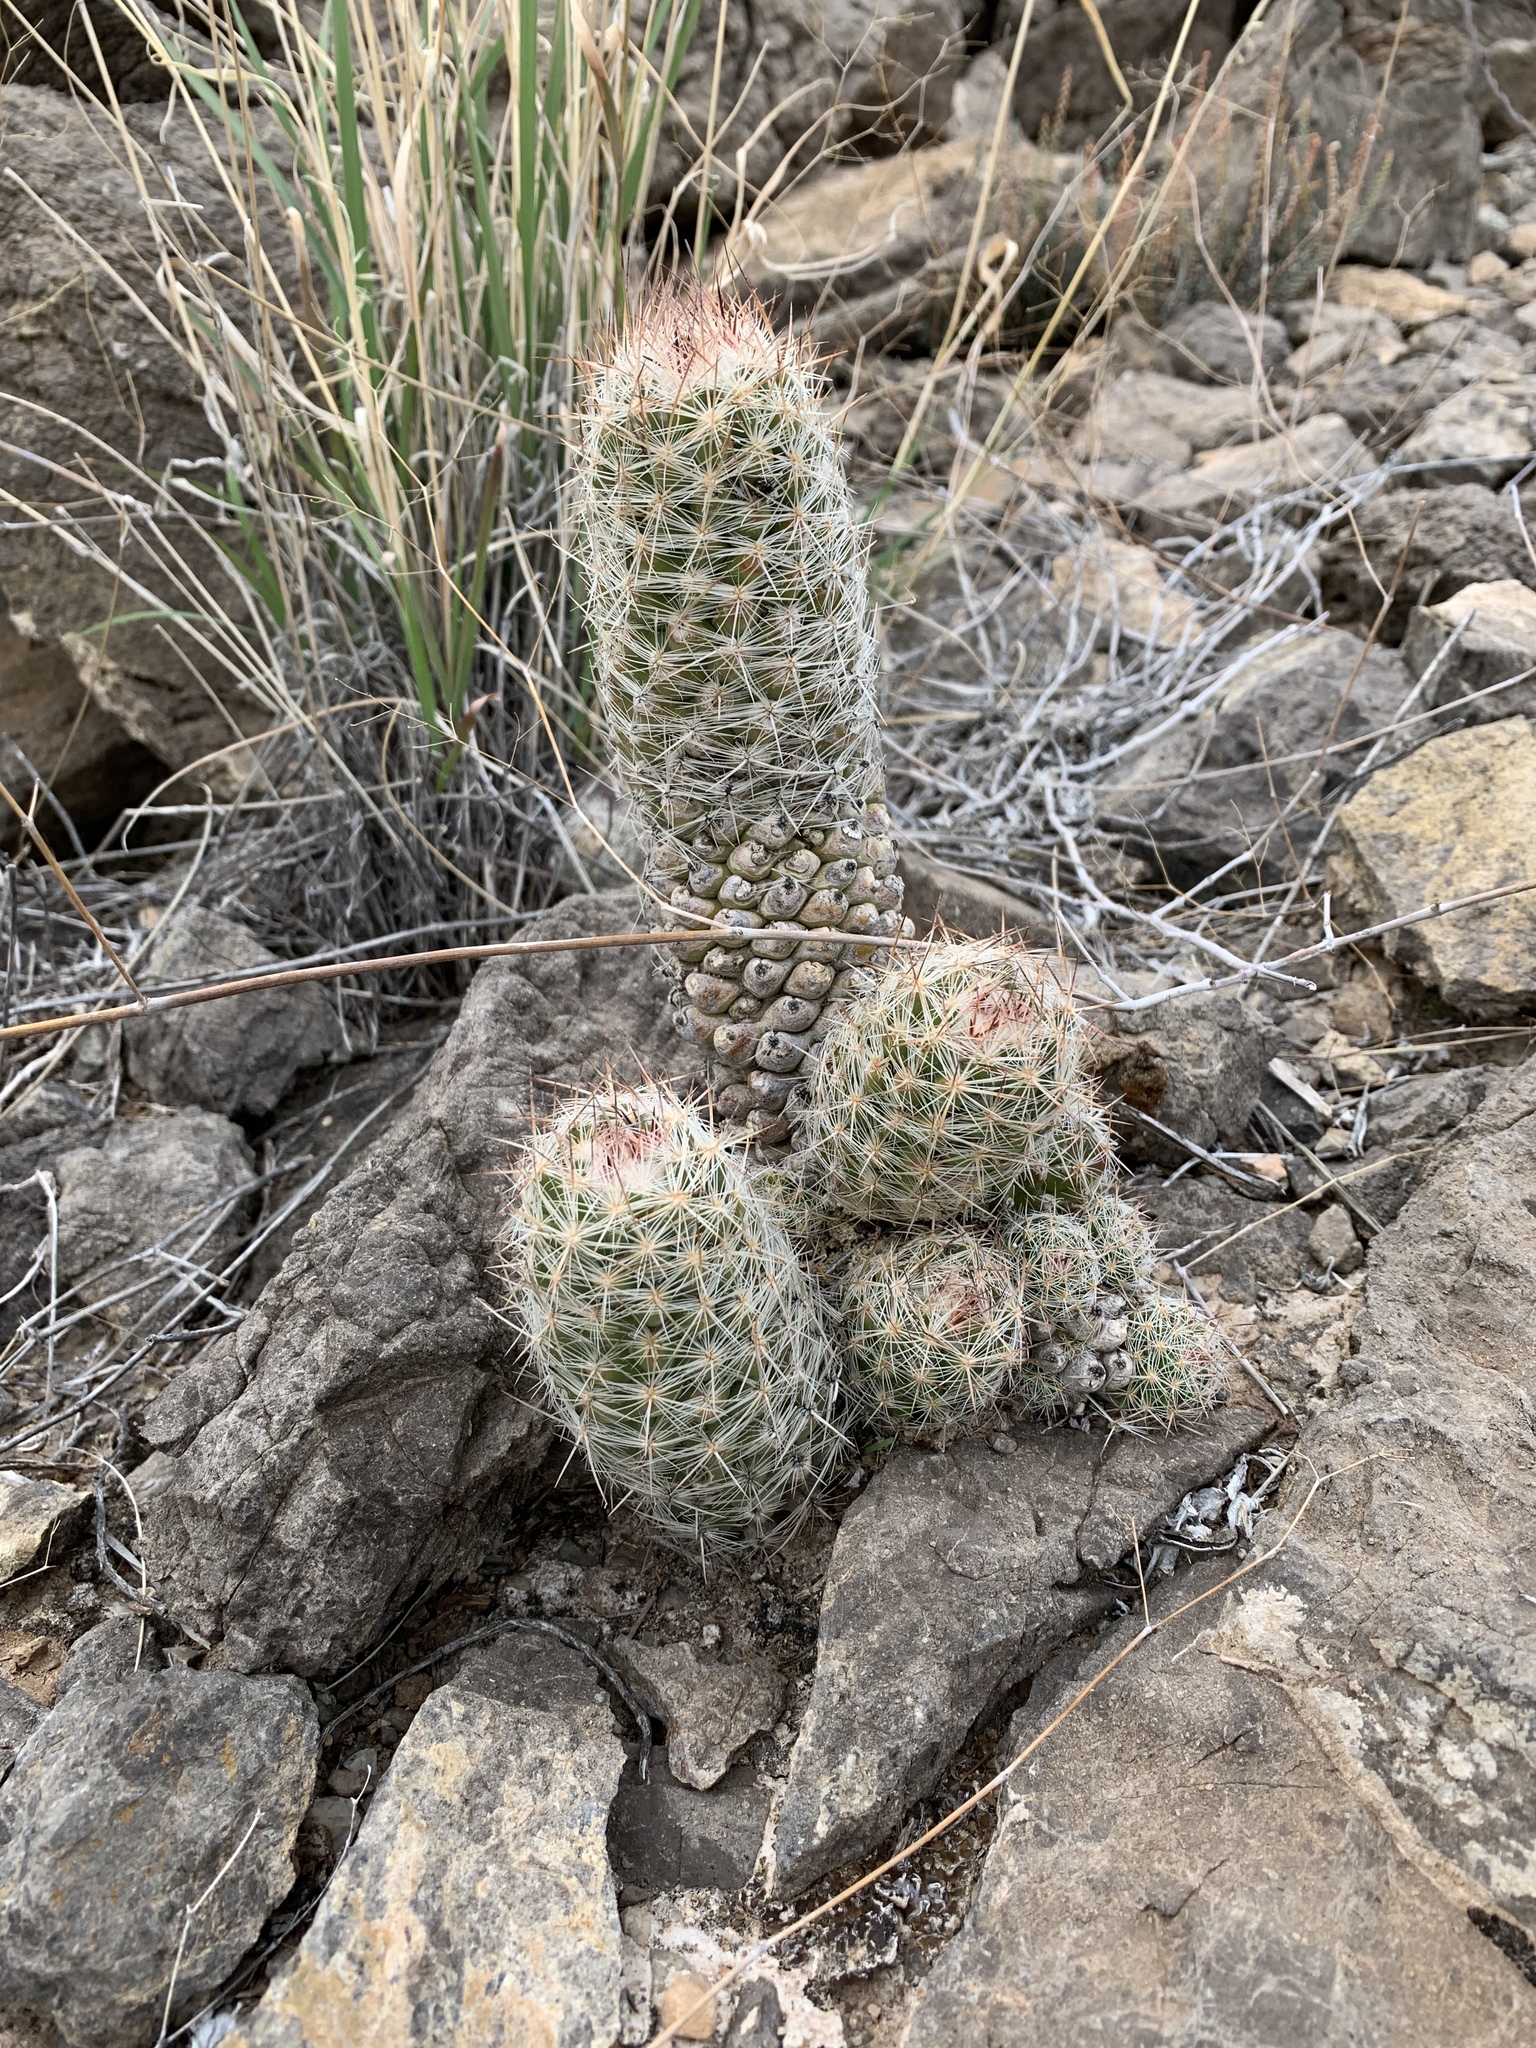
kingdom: Plantae
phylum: Tracheophyta
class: Magnoliopsida
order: Caryophyllales
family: Cactaceae
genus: Pelecyphora
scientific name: Pelecyphora tuberculosa
